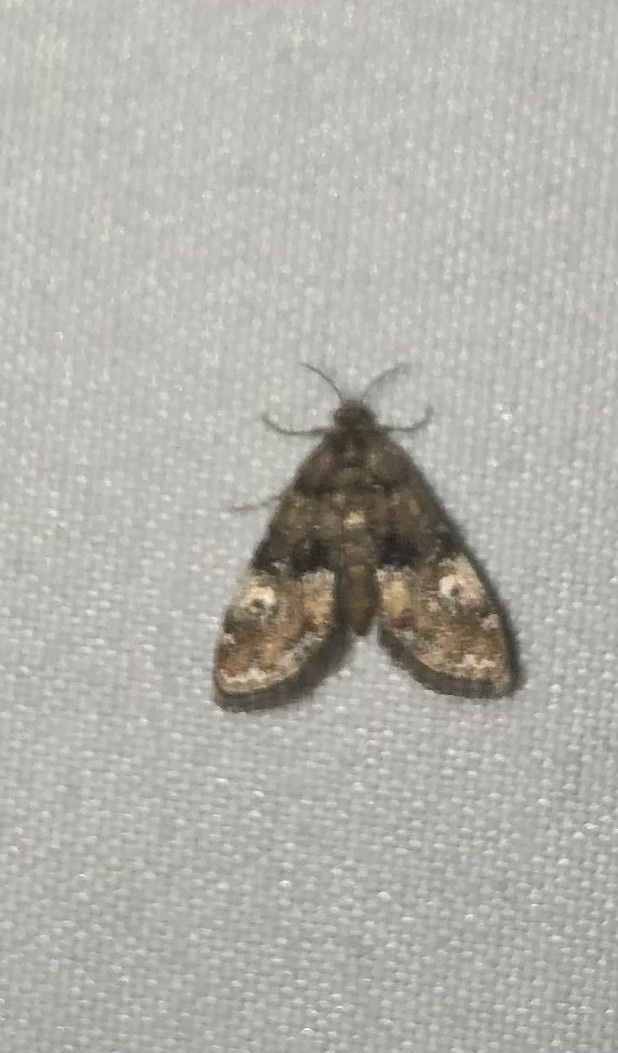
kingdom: Animalia
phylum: Arthropoda
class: Insecta
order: Lepidoptera
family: Crambidae
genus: Elophila
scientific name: Elophila obliteralis
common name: Waterlily leafcutter moth
